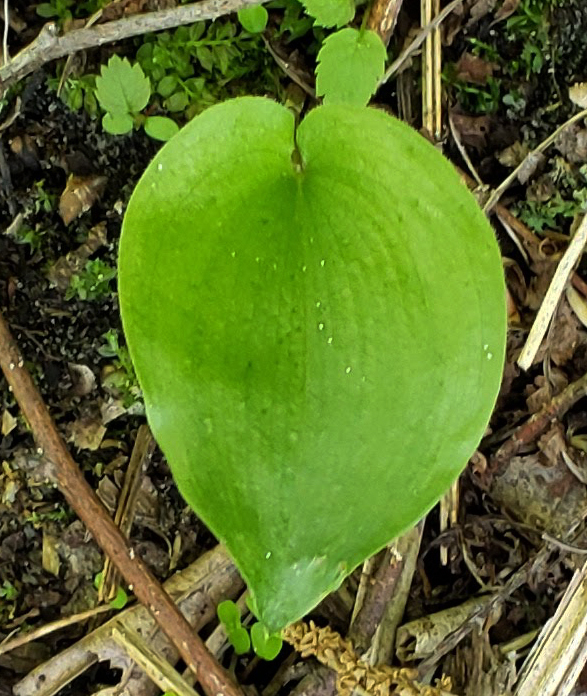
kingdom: Plantae
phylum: Tracheophyta
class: Liliopsida
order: Asparagales
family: Asparagaceae
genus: Maianthemum
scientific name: Maianthemum canadense
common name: False lily-of-the-valley
